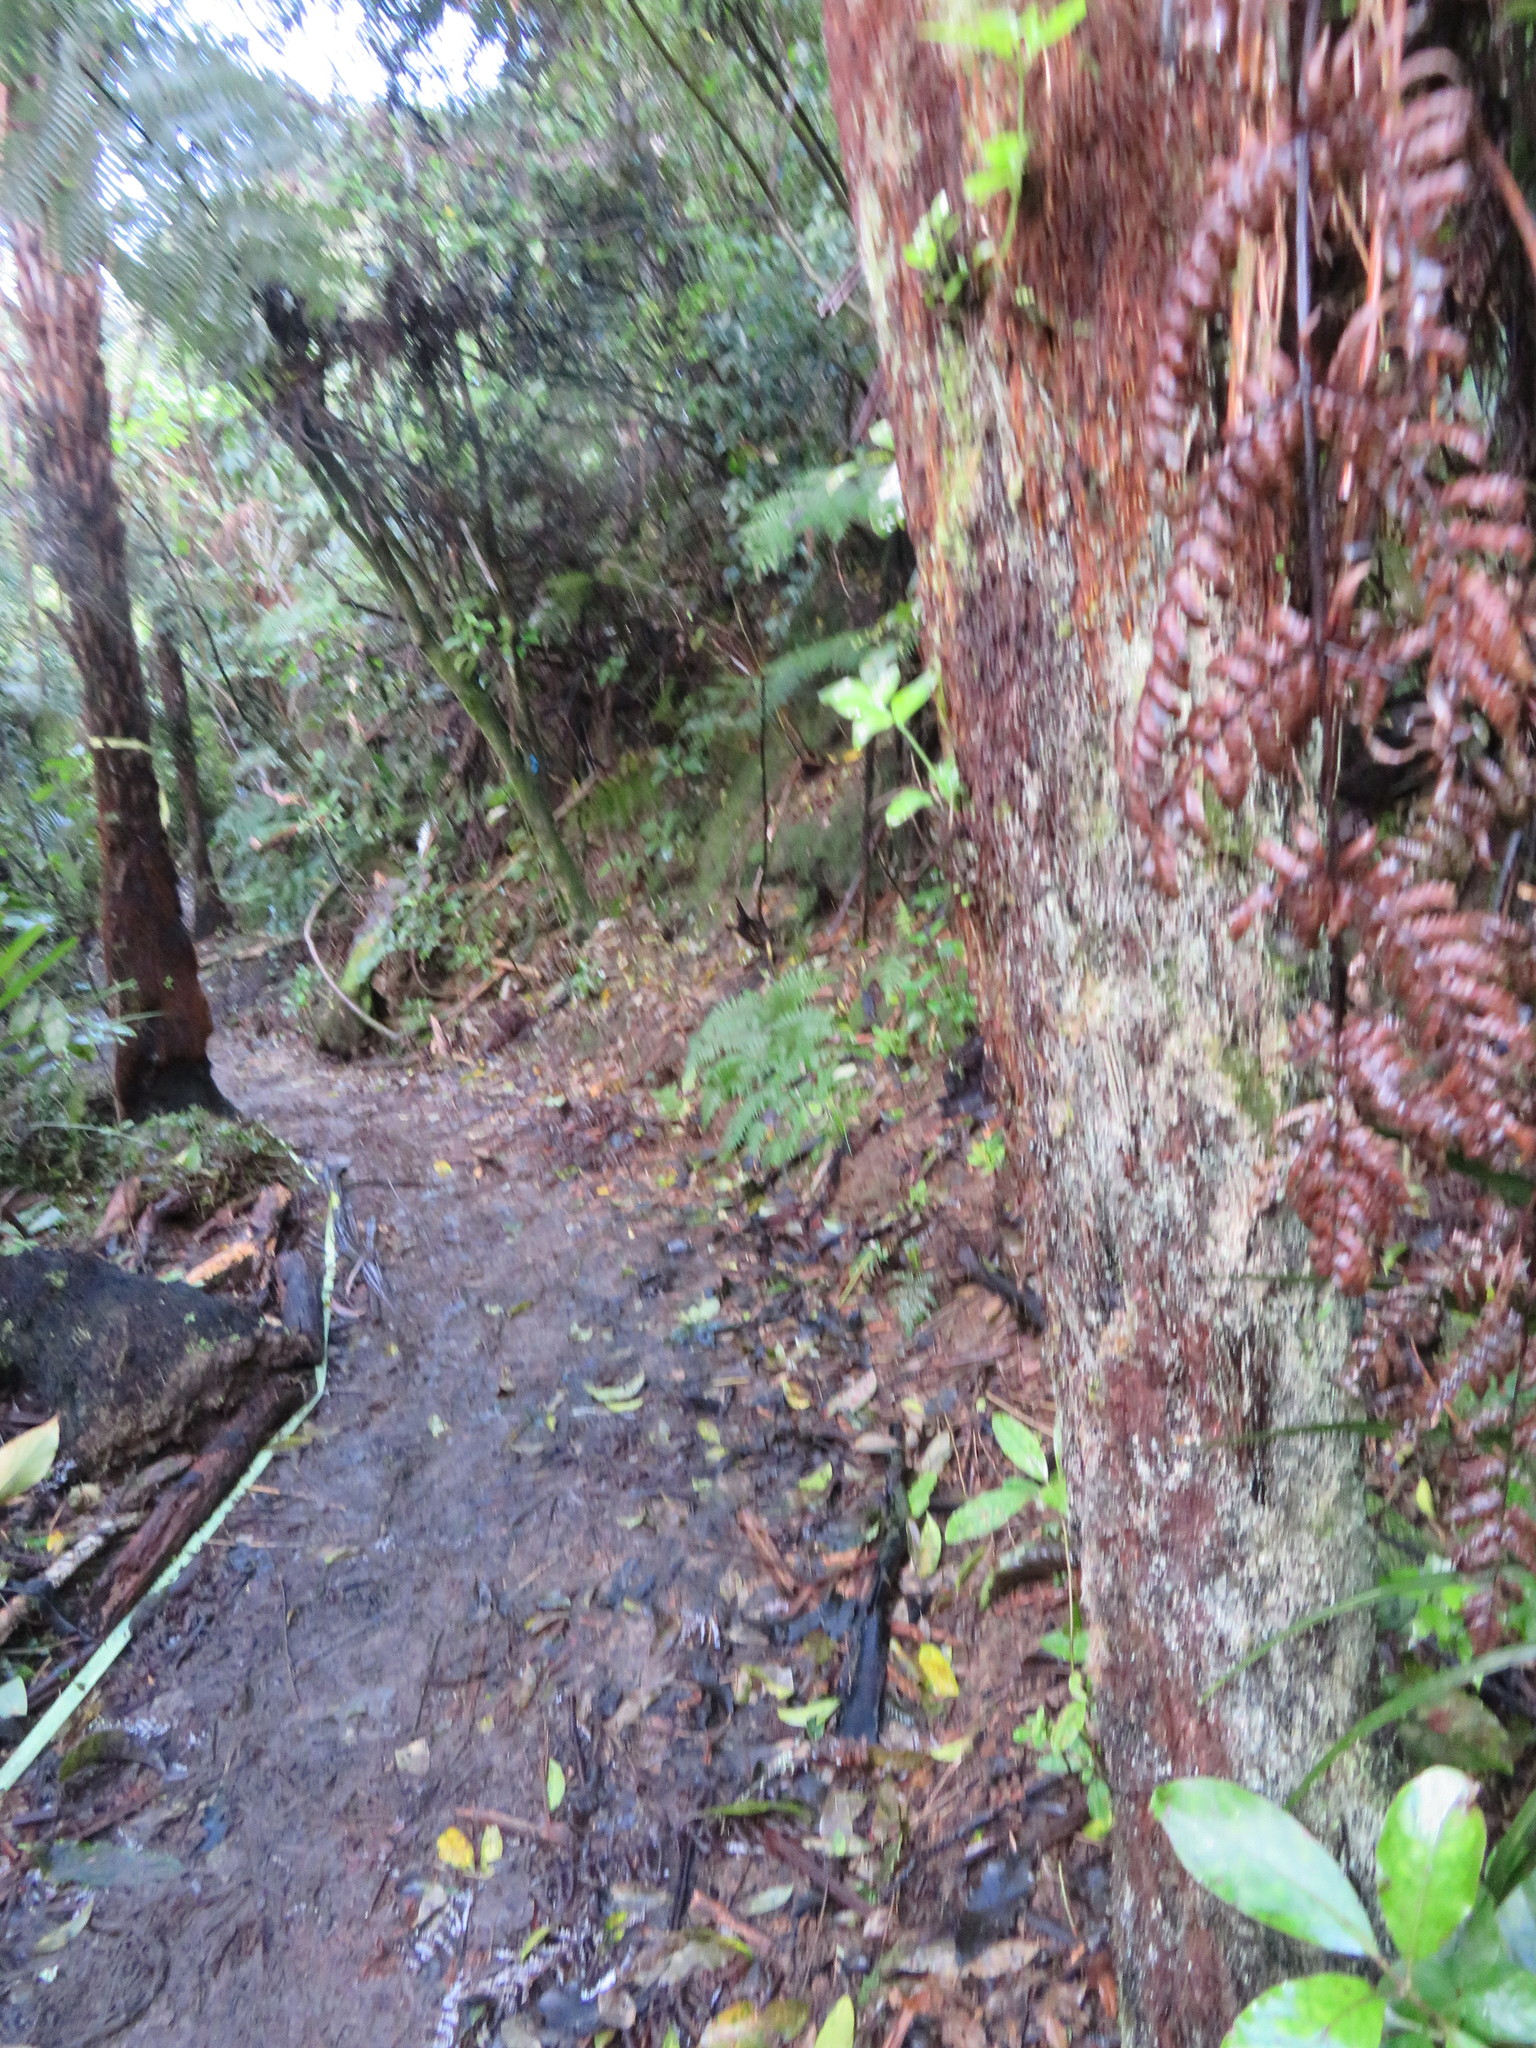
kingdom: Plantae
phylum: Tracheophyta
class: Liliopsida
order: Commelinales
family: Commelinaceae
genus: Tradescantia
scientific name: Tradescantia fluminensis
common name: Wandering-jew
